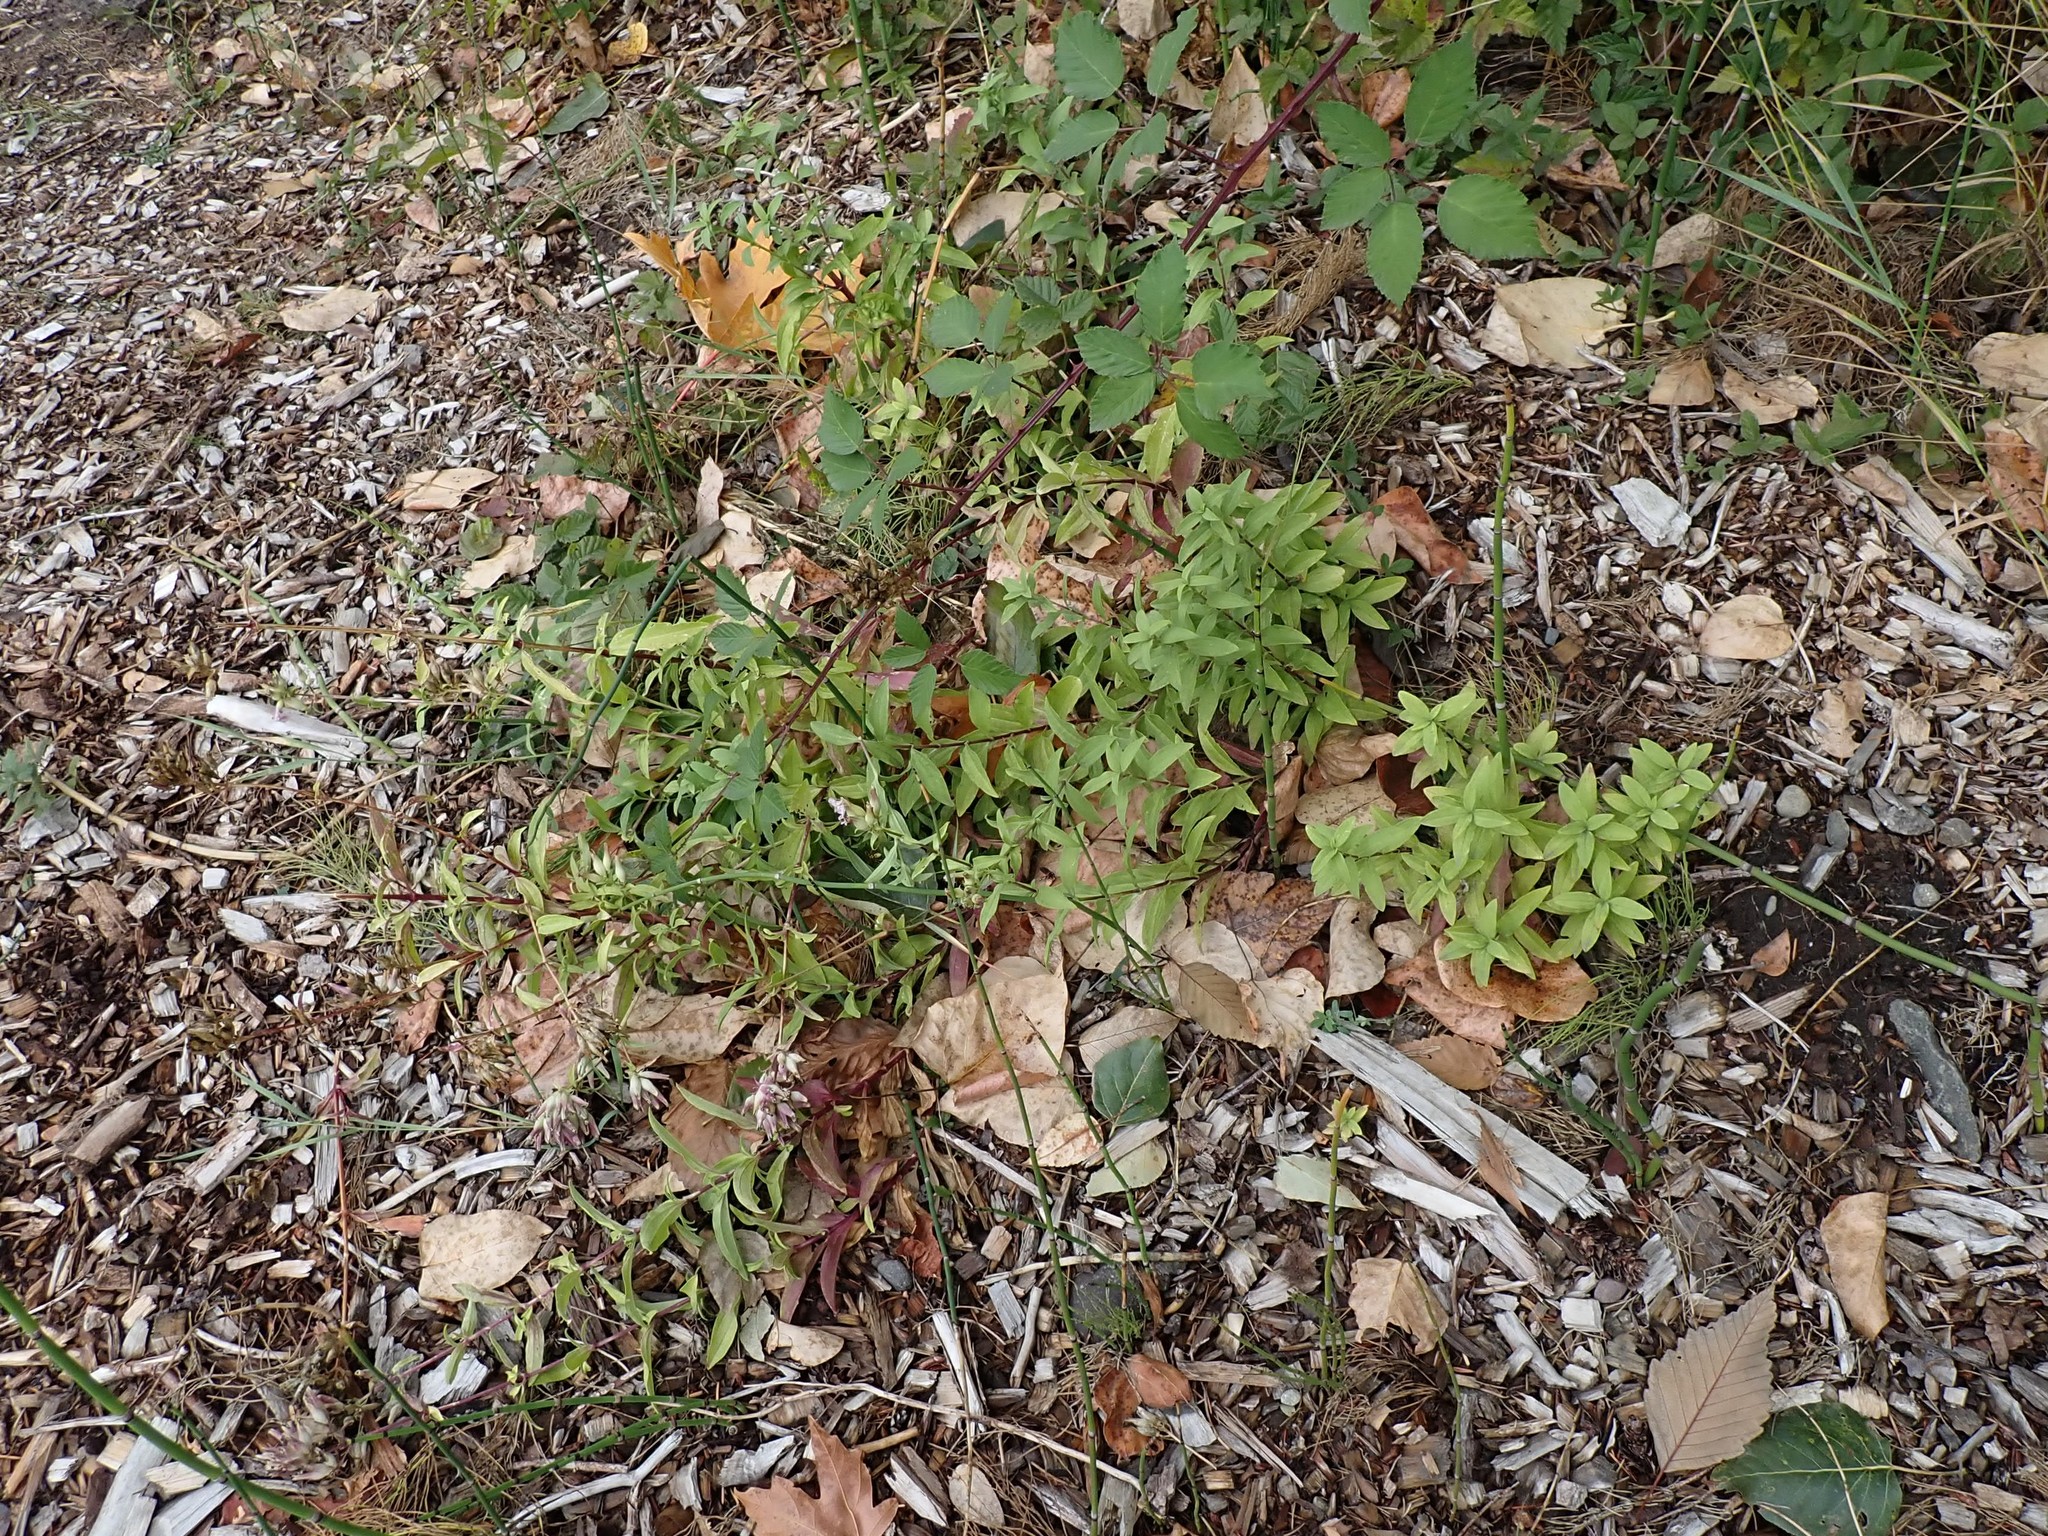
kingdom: Plantae
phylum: Tracheophyta
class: Magnoliopsida
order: Caryophyllales
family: Caryophyllaceae
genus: Saponaria
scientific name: Saponaria officinalis
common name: Soapwort
